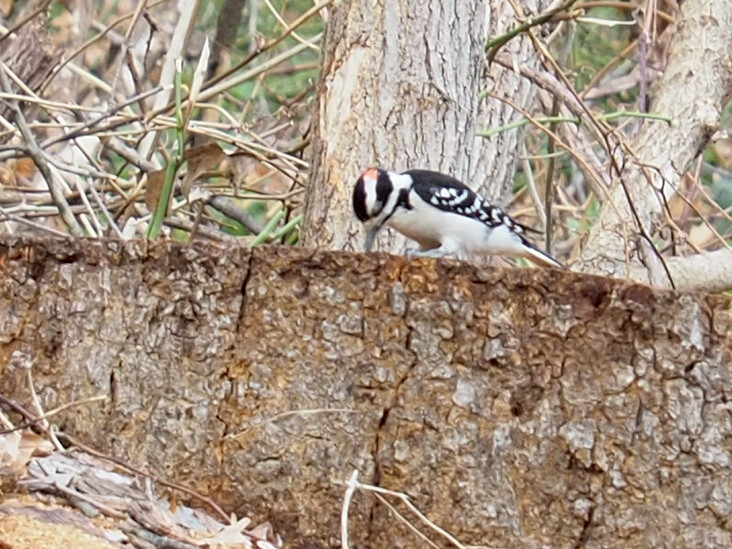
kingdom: Animalia
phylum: Chordata
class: Aves
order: Piciformes
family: Picidae
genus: Dryobates
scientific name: Dryobates pubescens
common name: Downy woodpecker
